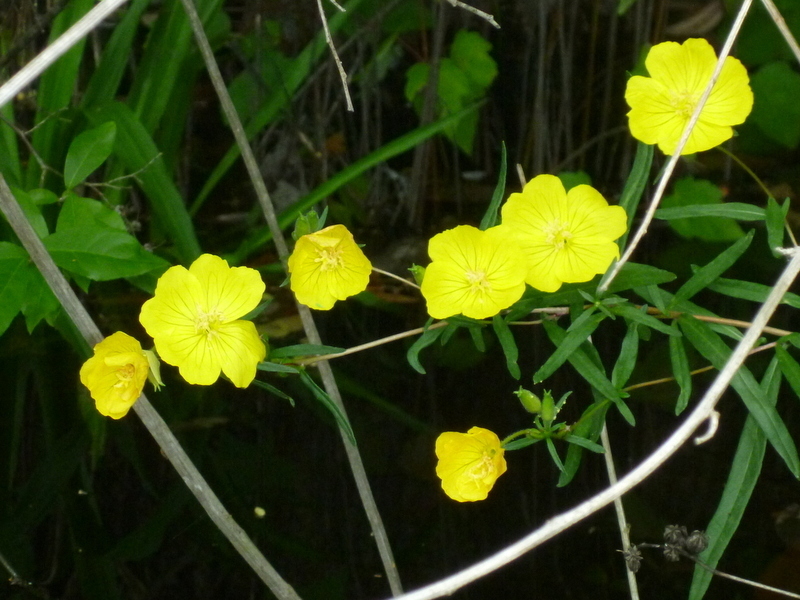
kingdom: Plantae
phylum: Tracheophyta
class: Magnoliopsida
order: Myrtales
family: Onagraceae
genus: Oenothera
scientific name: Oenothera fruticosa
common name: Southern sundrops
